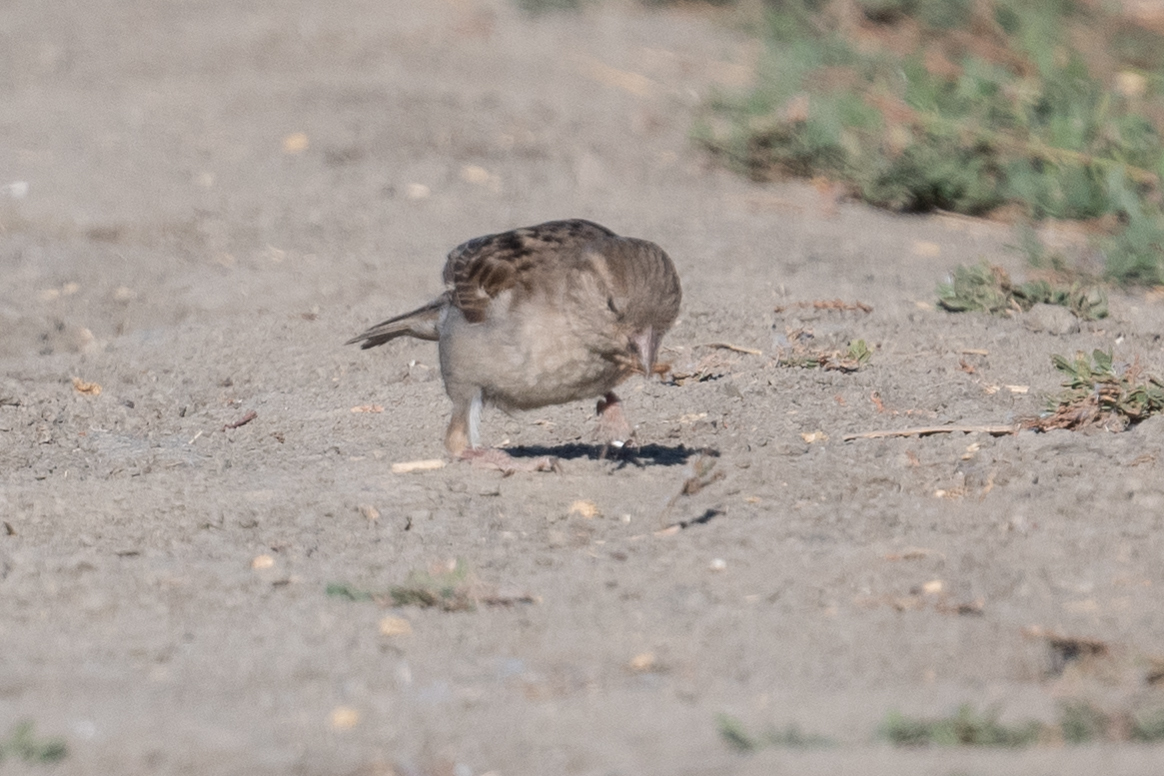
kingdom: Animalia
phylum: Chordata
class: Aves
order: Passeriformes
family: Passeridae
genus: Passer
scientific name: Passer domesticus
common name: House sparrow
